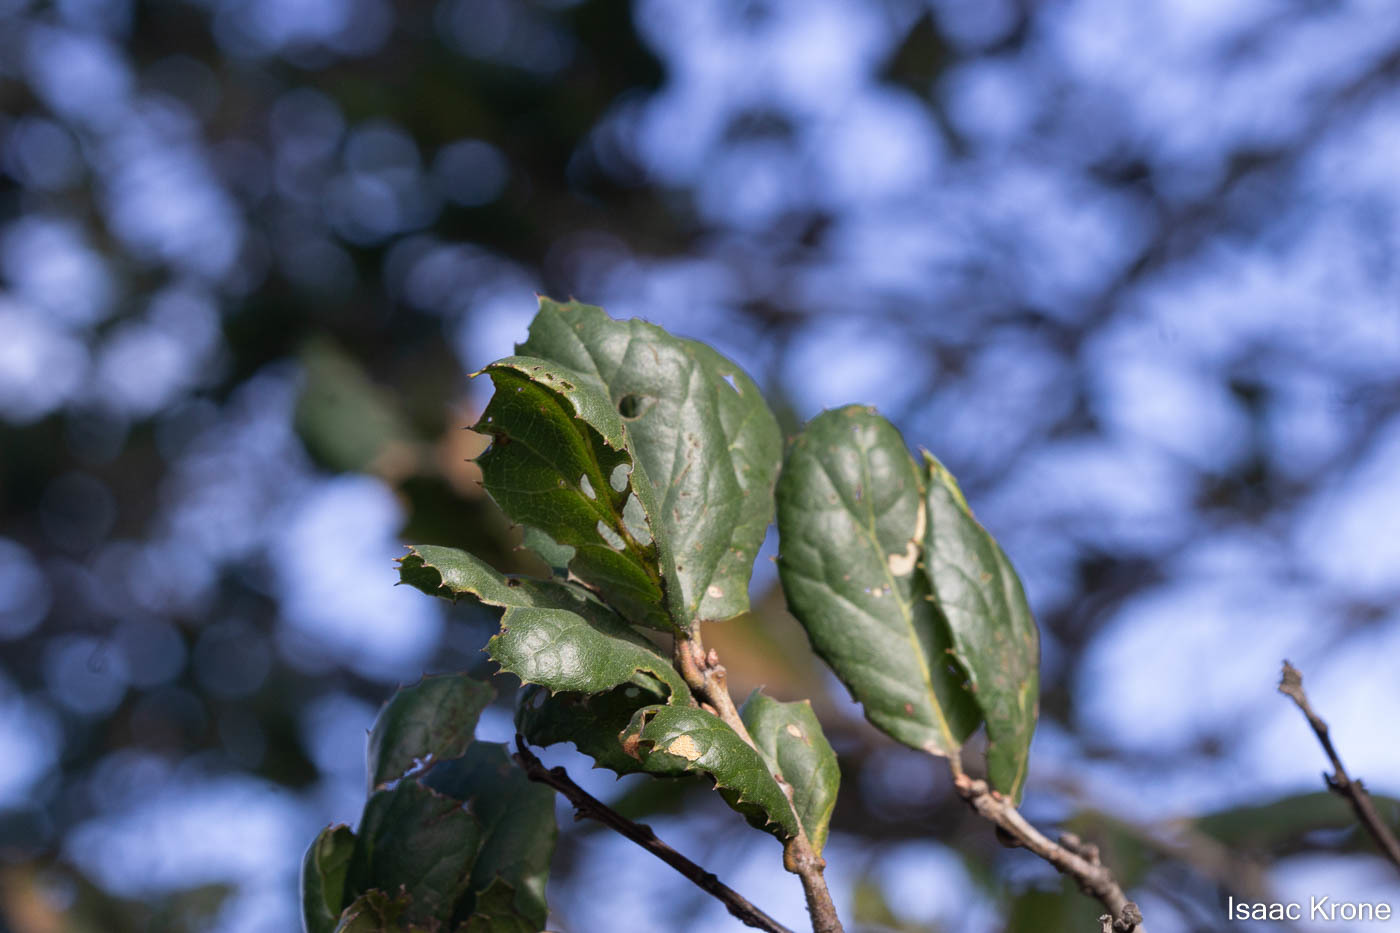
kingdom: Plantae
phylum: Tracheophyta
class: Magnoliopsida
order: Fagales
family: Fagaceae
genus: Quercus
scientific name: Quercus agrifolia
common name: California live oak
